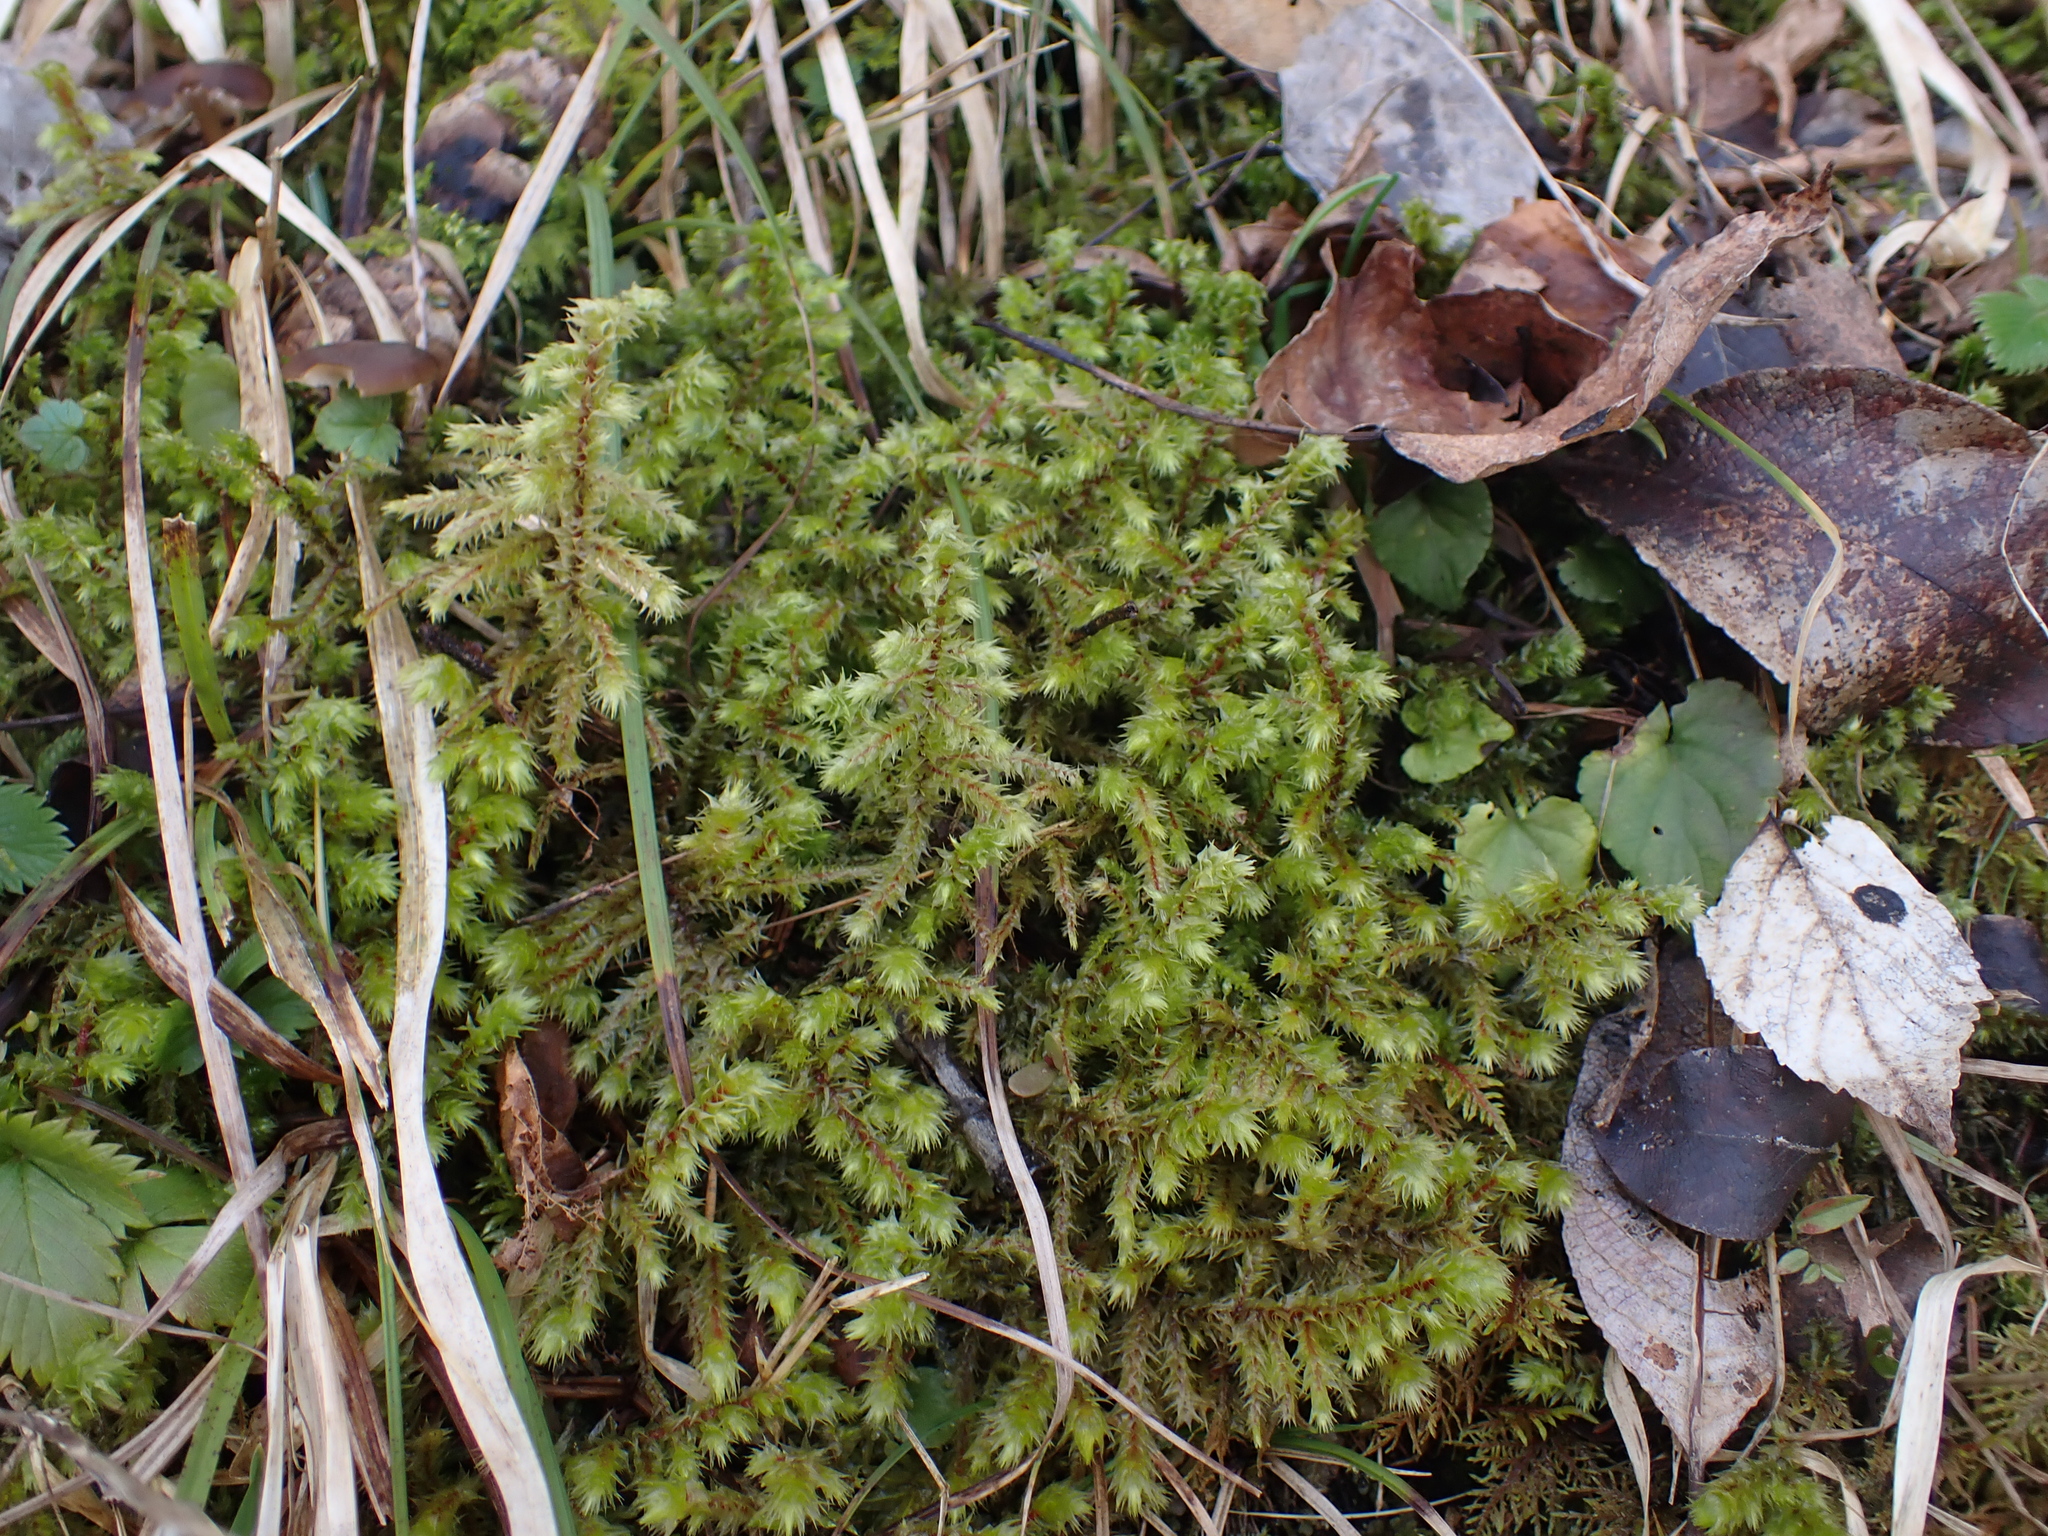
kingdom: Plantae
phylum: Bryophyta
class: Bryopsida
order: Hypnales
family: Hylocomiaceae
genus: Hylocomiadelphus
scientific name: Hylocomiadelphus triquetrus
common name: Rough goose neck moss
